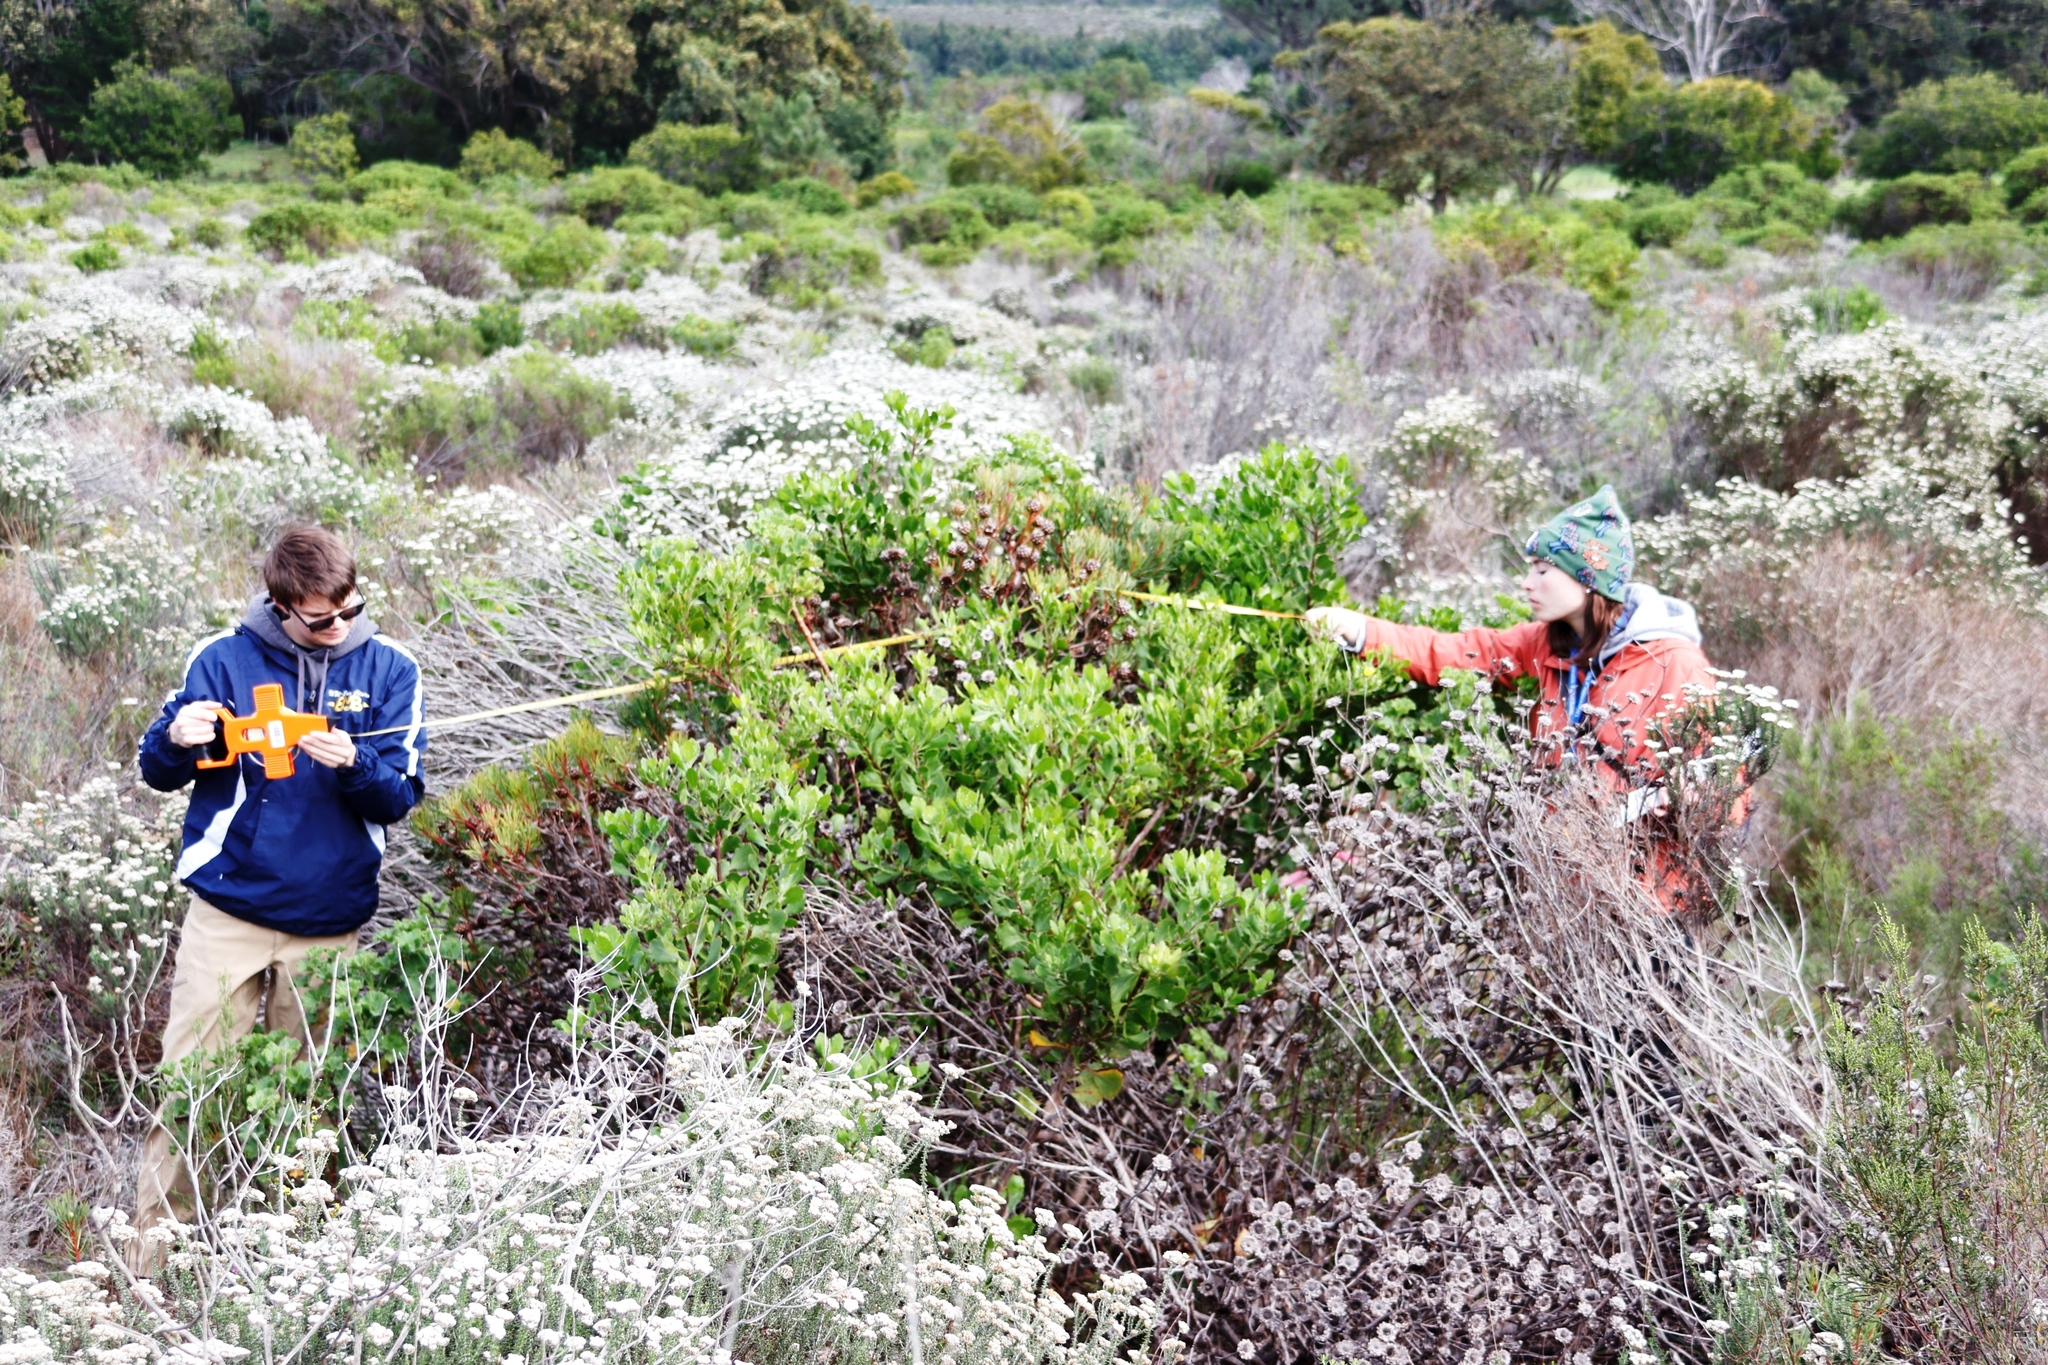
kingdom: Plantae
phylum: Tracheophyta
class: Magnoliopsida
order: Proteales
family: Proteaceae
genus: Protea
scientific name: Protea scolymocephala
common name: Thistle sugarbush
